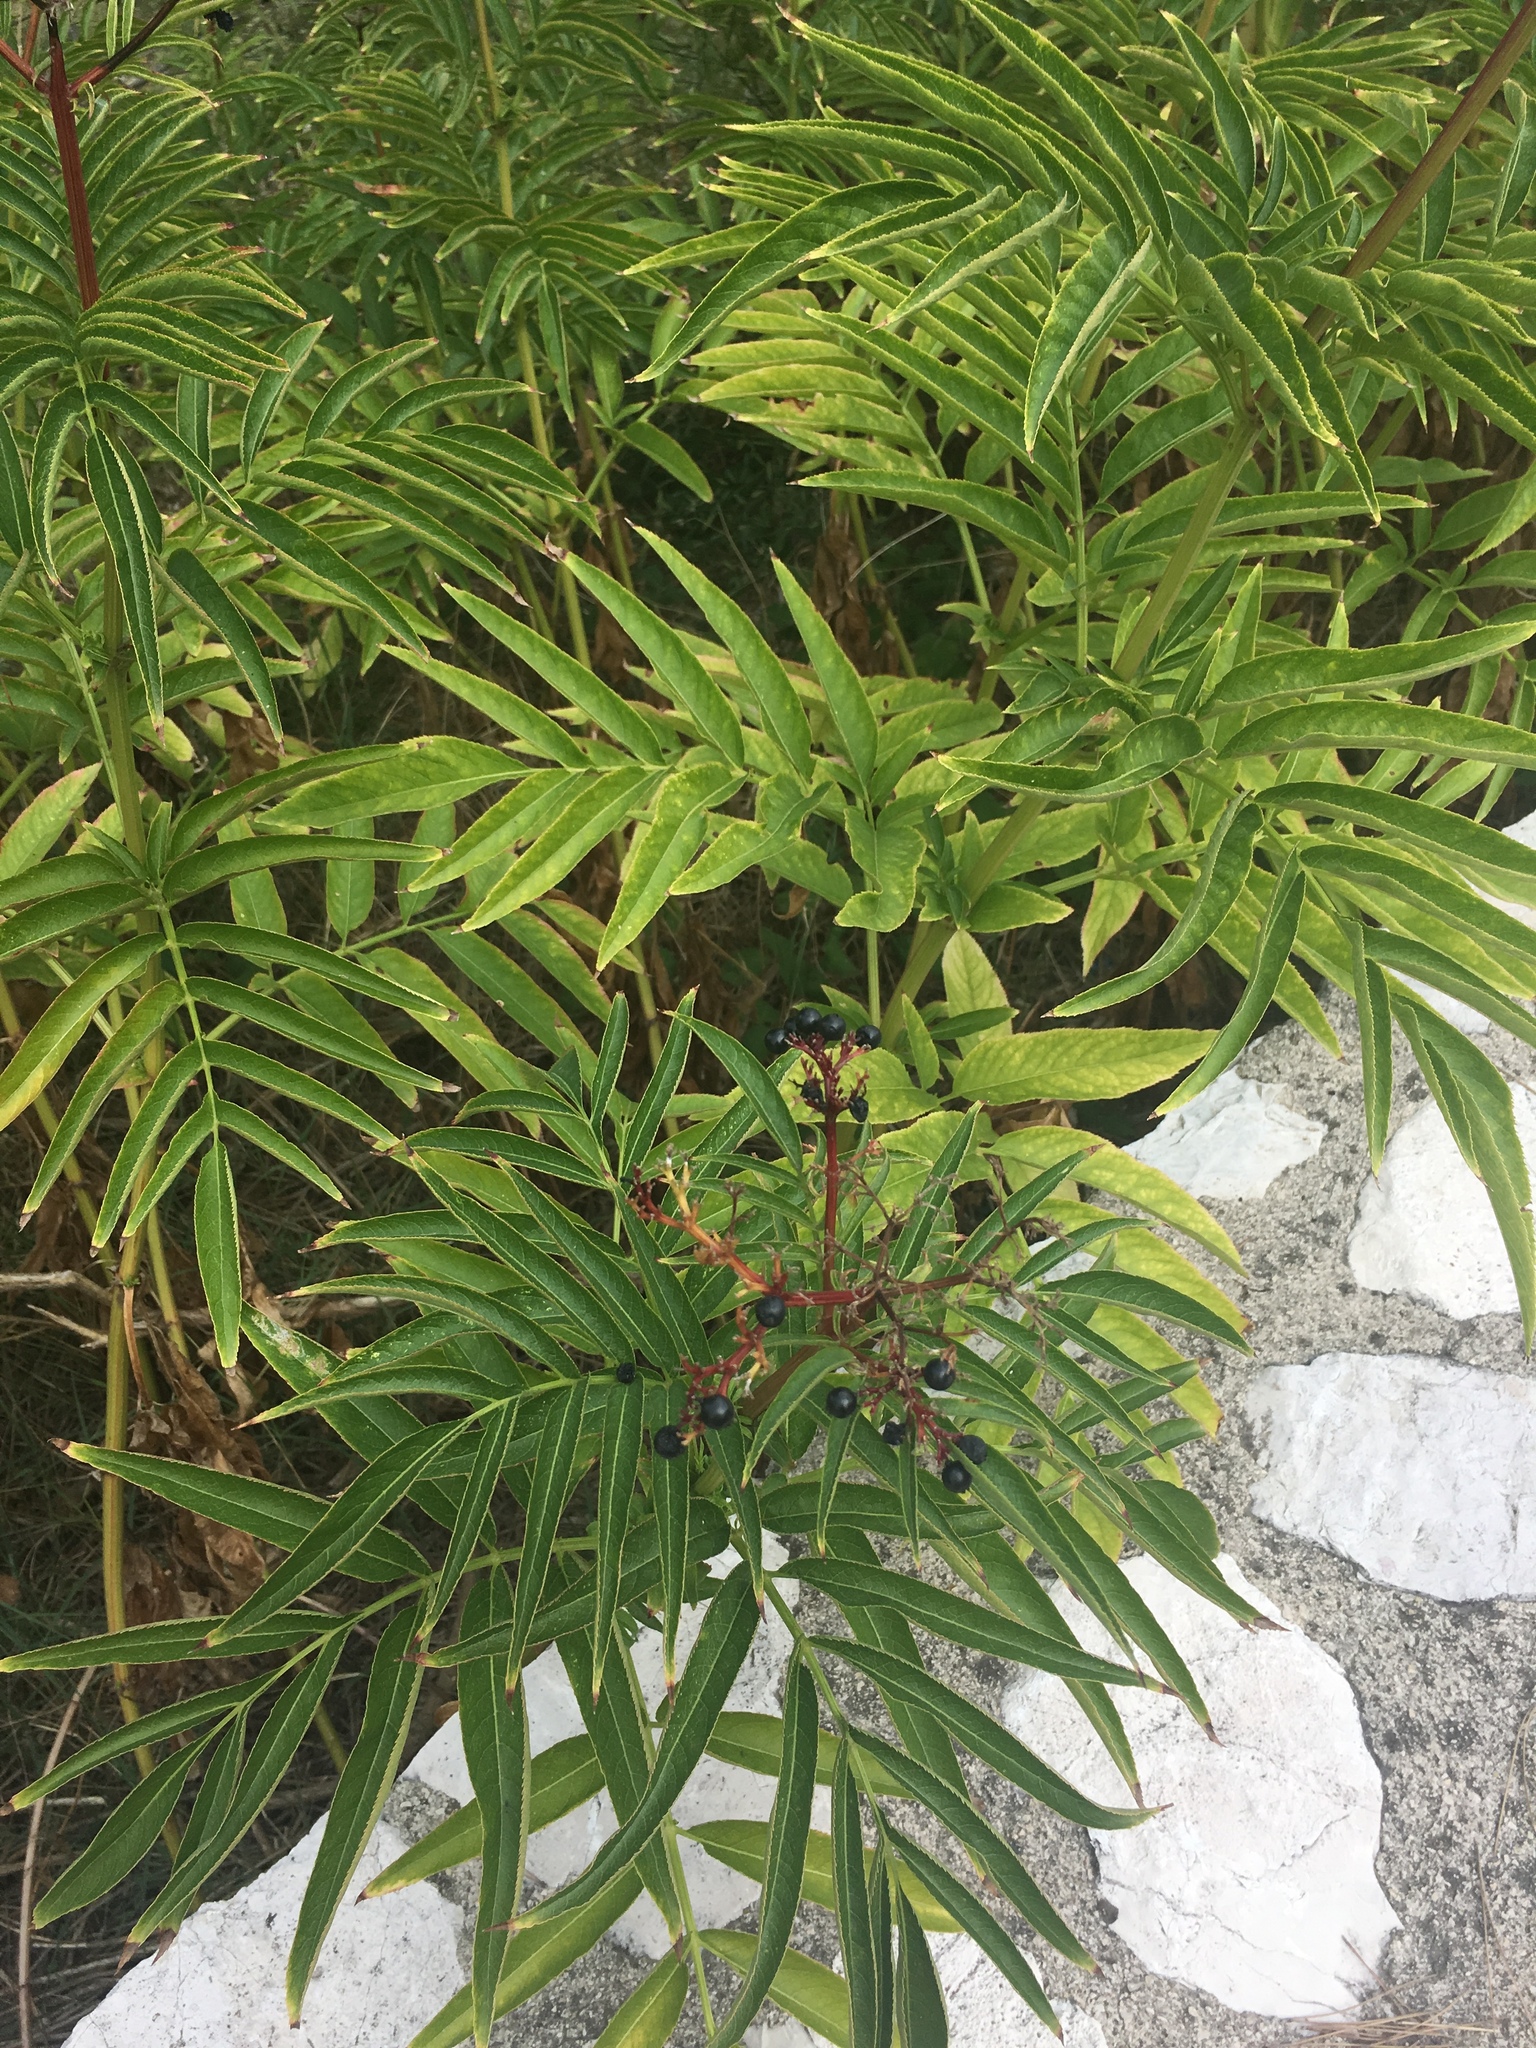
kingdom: Plantae
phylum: Tracheophyta
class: Magnoliopsida
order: Dipsacales
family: Viburnaceae
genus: Sambucus
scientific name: Sambucus ebulus
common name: Dwarf elder
